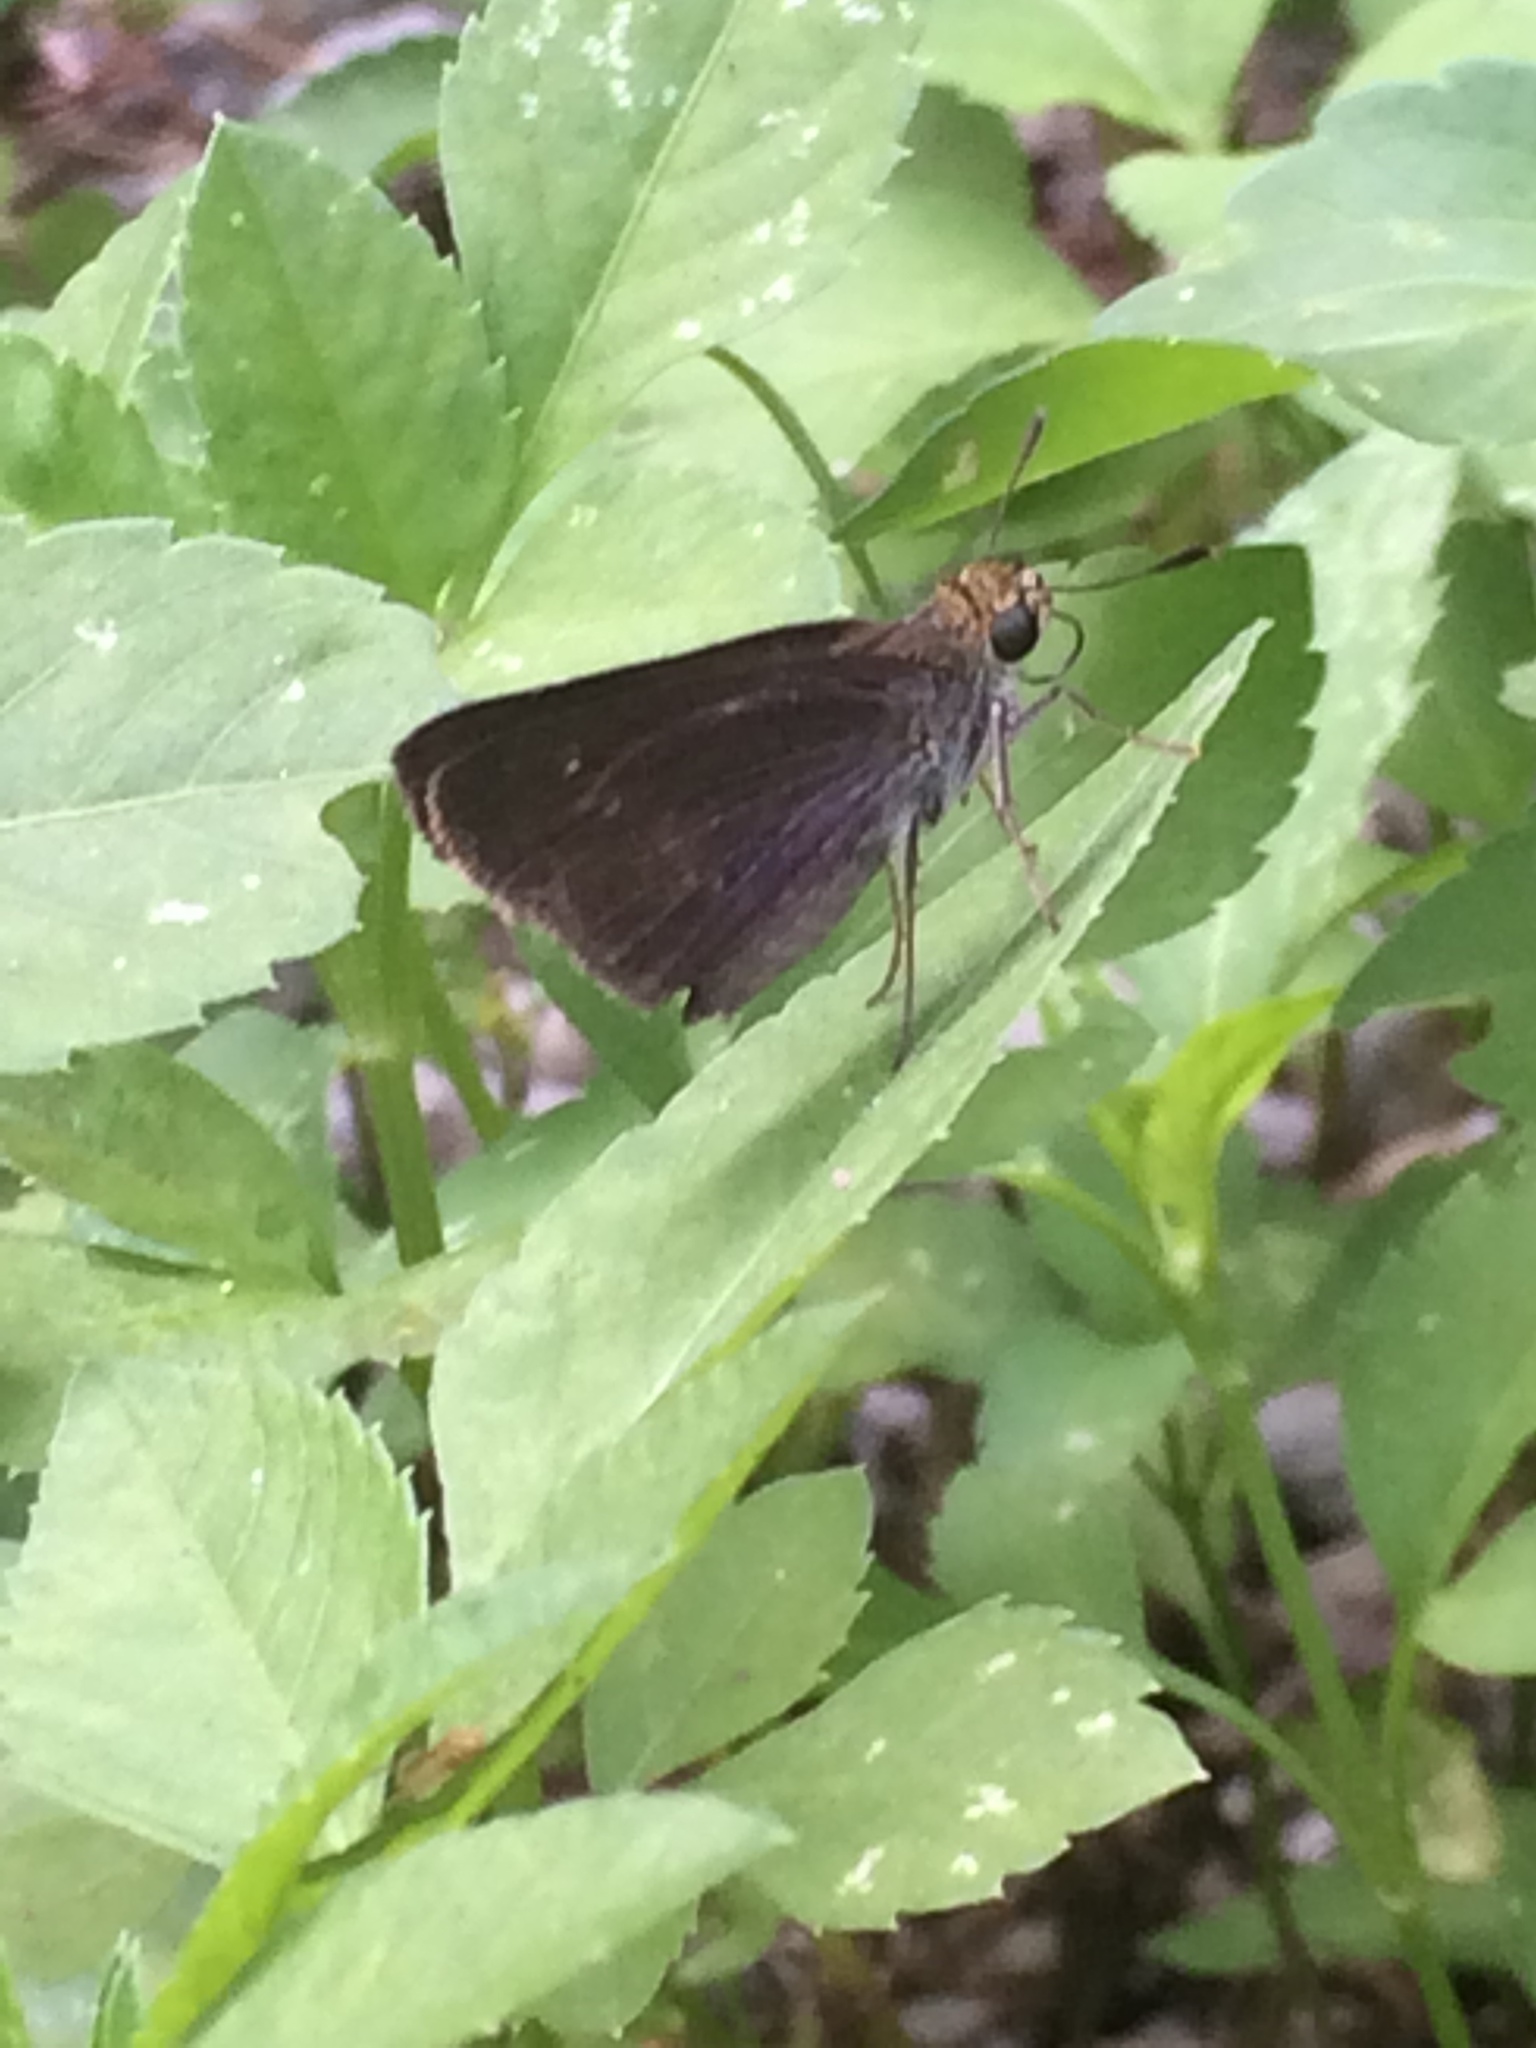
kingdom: Animalia
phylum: Arthropoda
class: Insecta
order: Lepidoptera
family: Hesperiidae
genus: Euphyes
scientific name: Euphyes vestris
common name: Dun skipper
